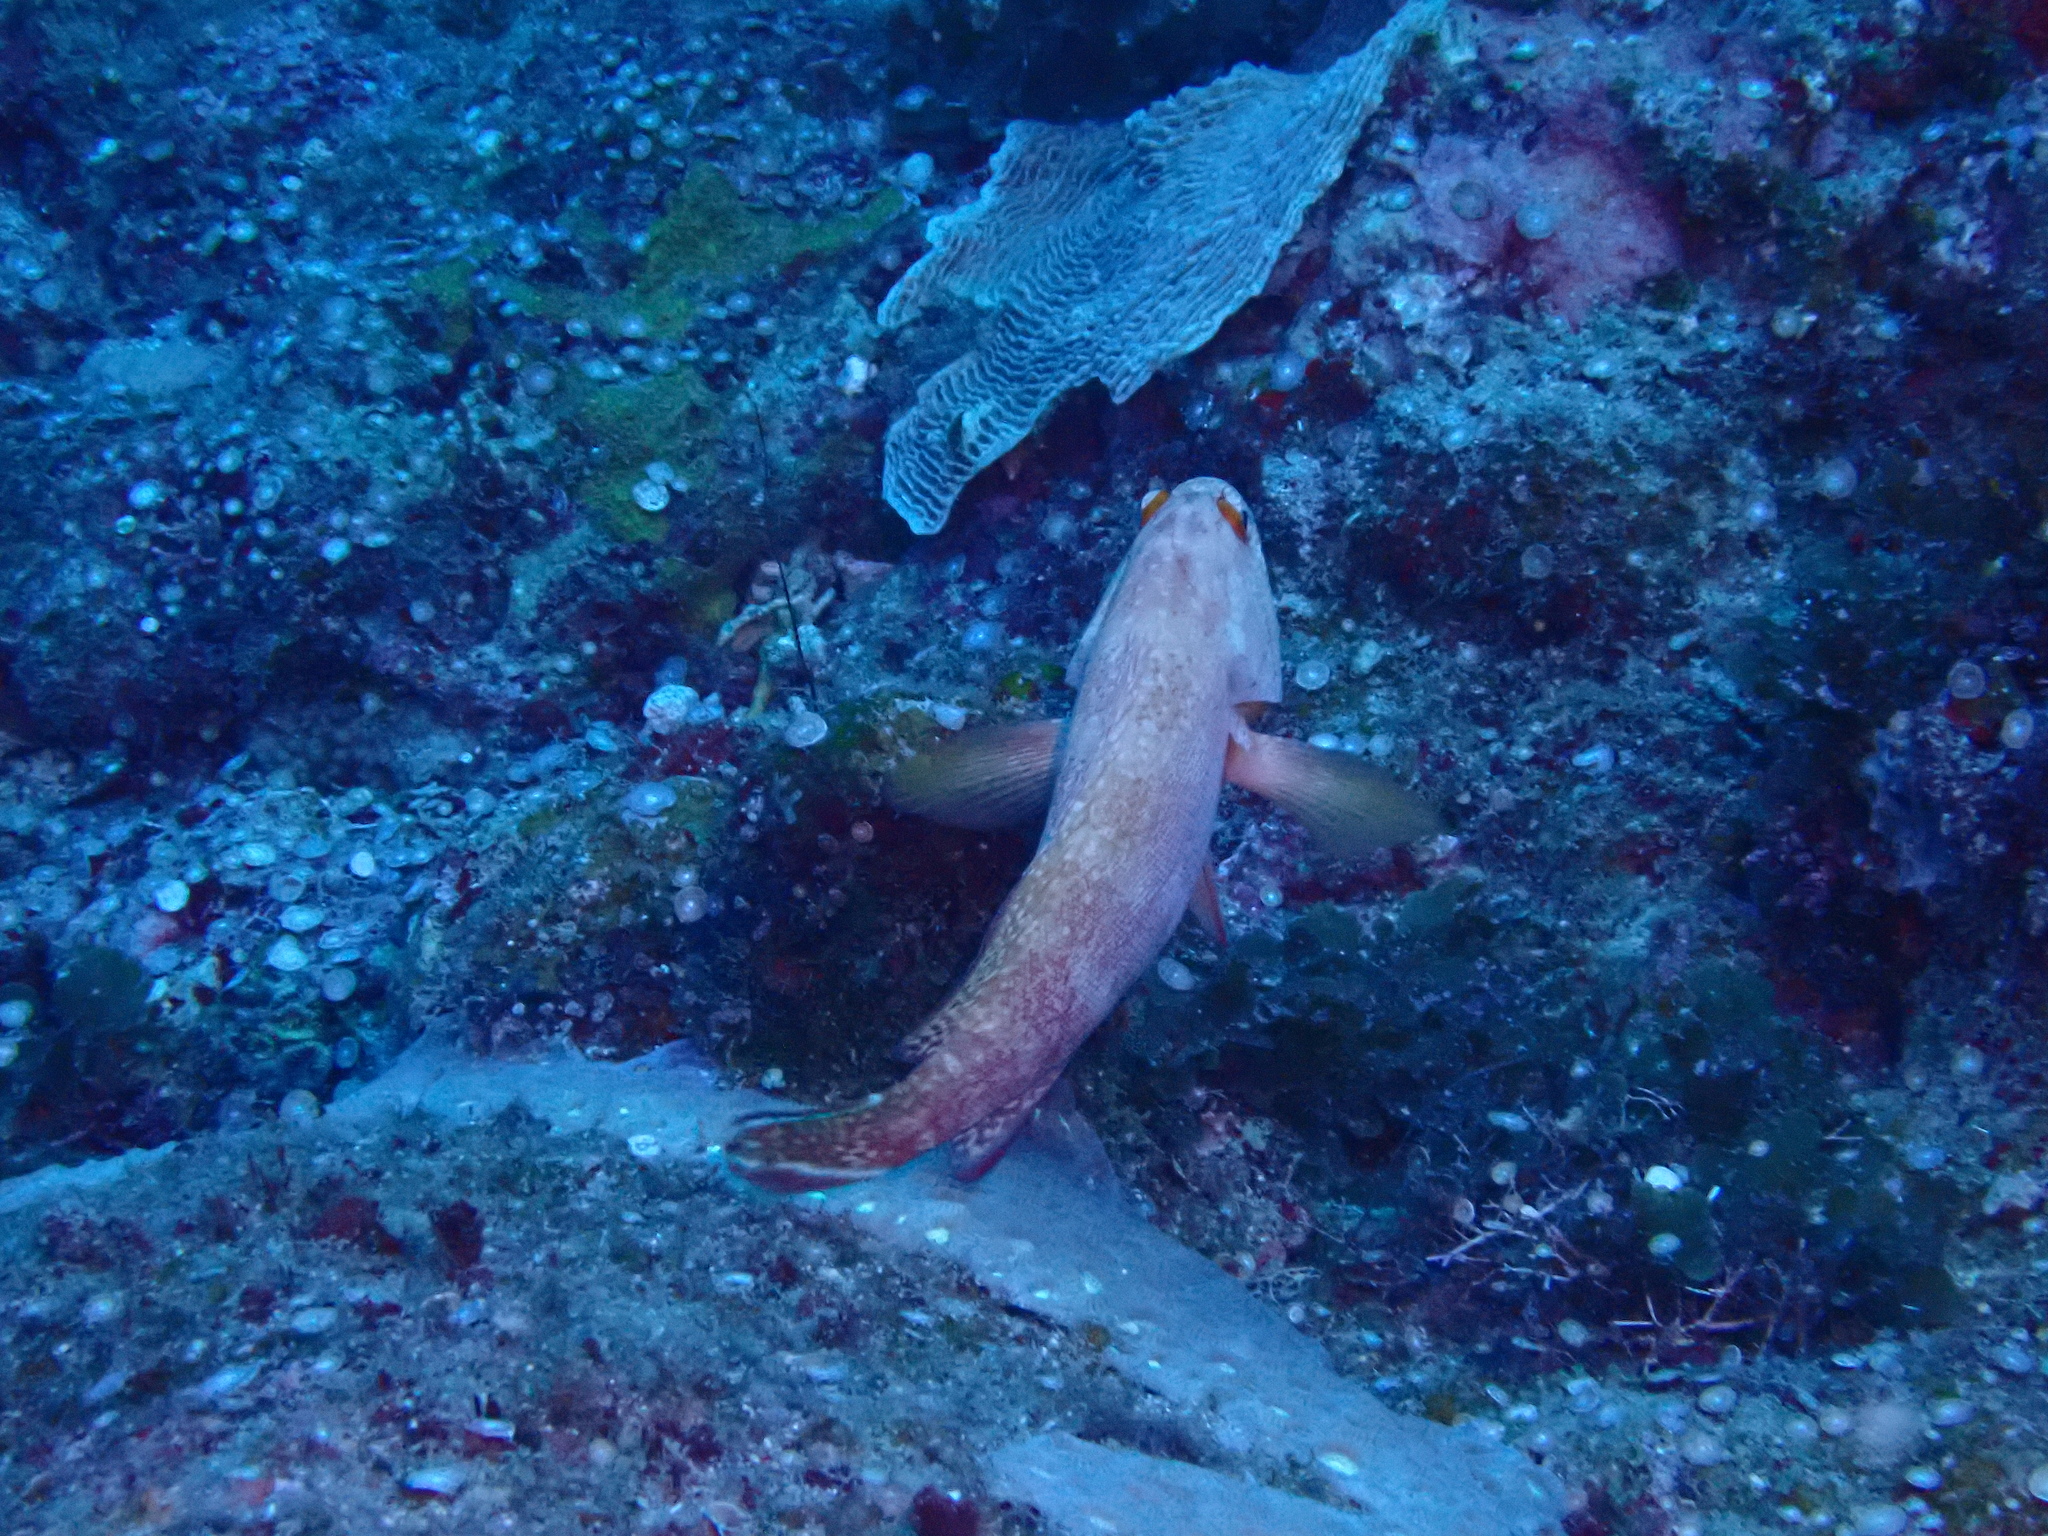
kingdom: Animalia
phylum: Chordata
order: Perciformes
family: Serranidae
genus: Cephalopholis
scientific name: Cephalopholis urodeta
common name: Darkfin hind
